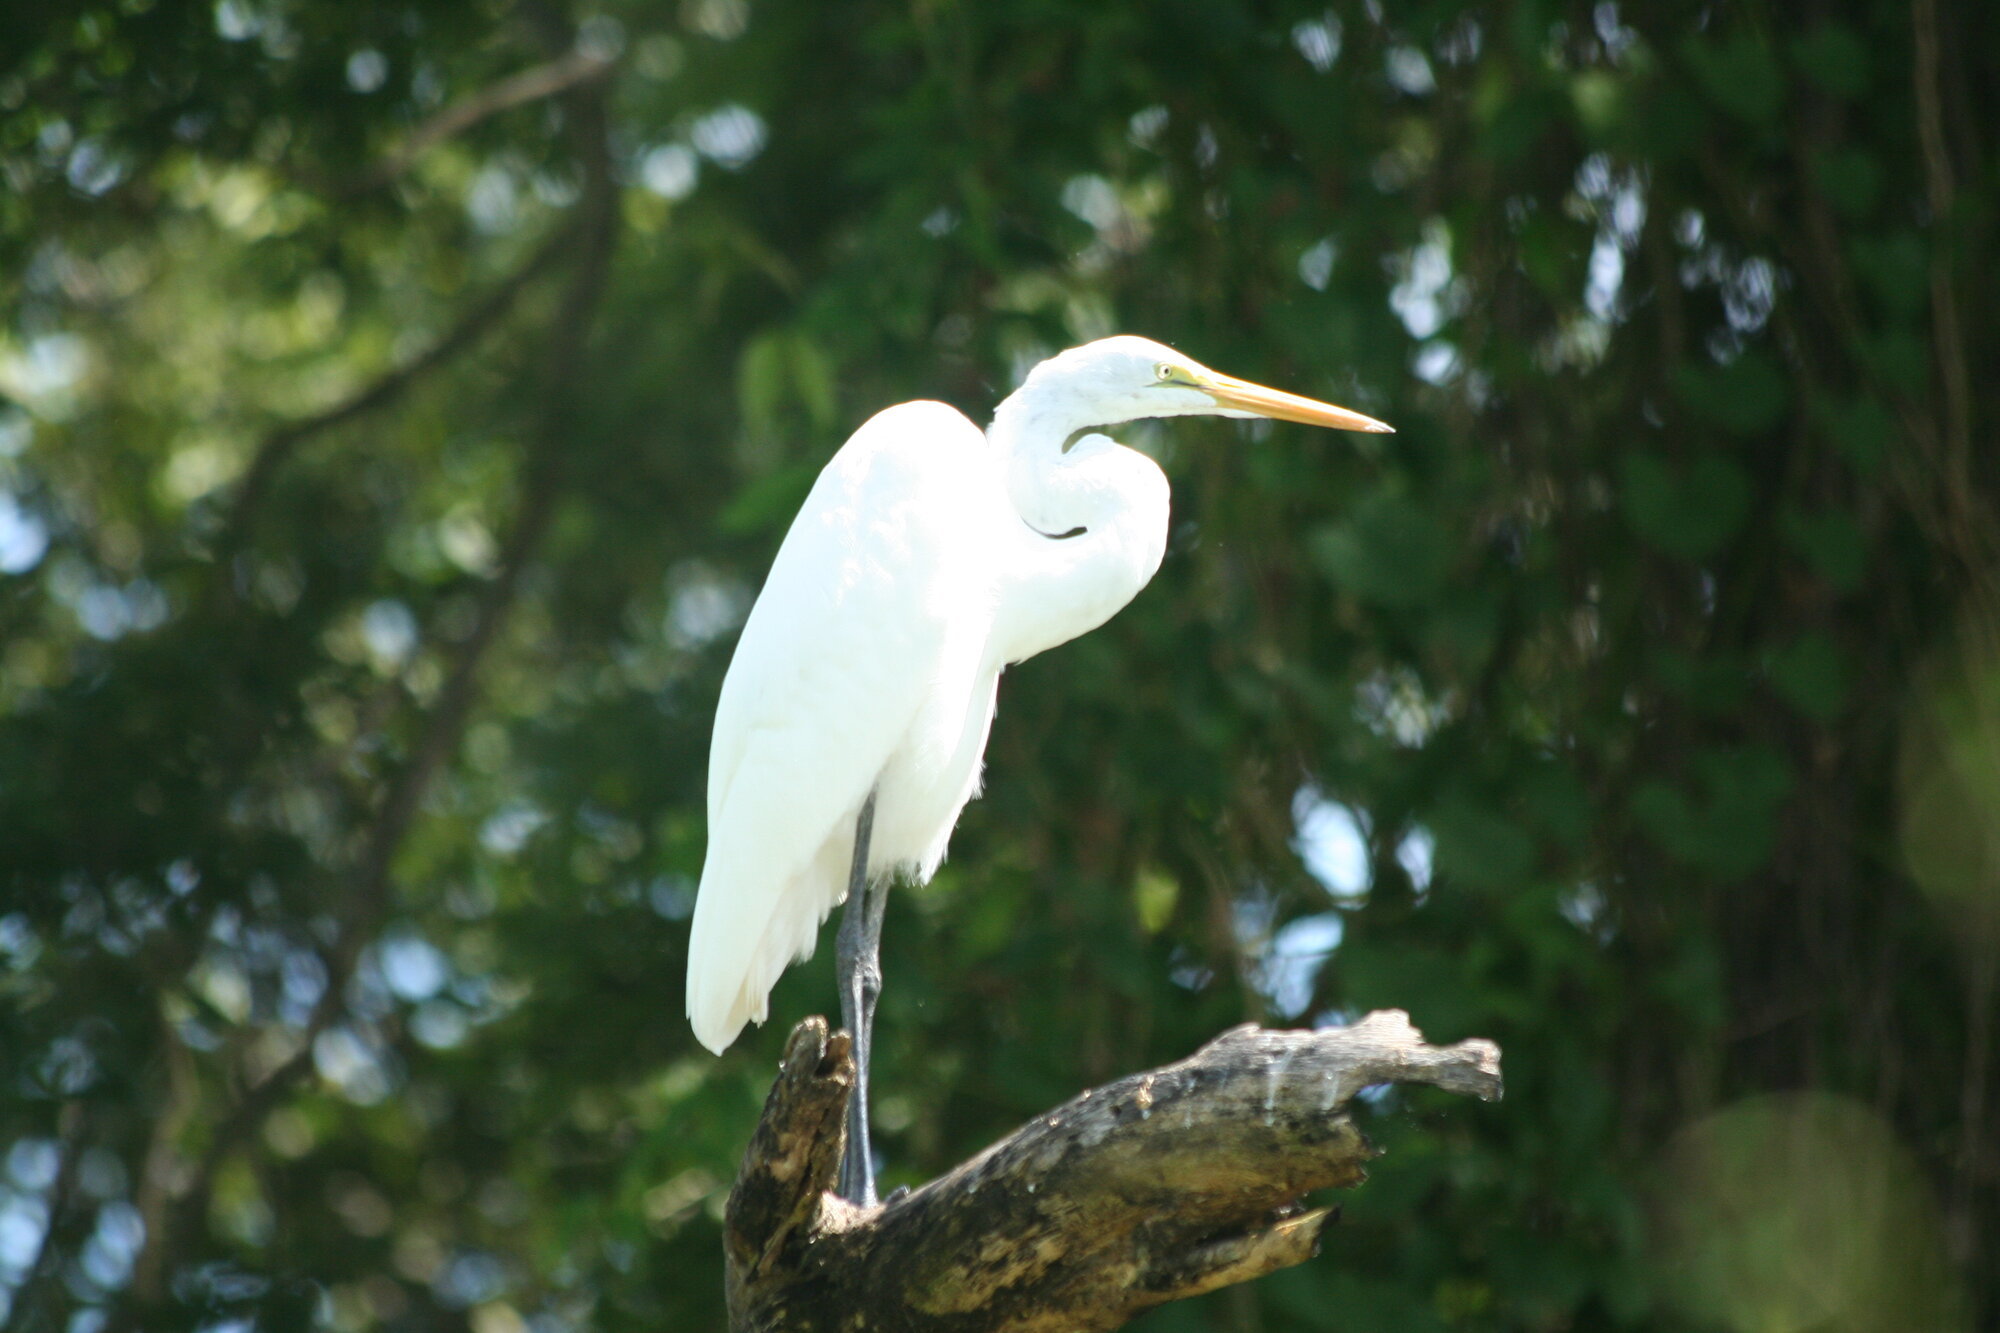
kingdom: Animalia
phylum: Chordata
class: Aves
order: Pelecaniformes
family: Ardeidae
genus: Ardea
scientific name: Ardea alba
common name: Great egret
